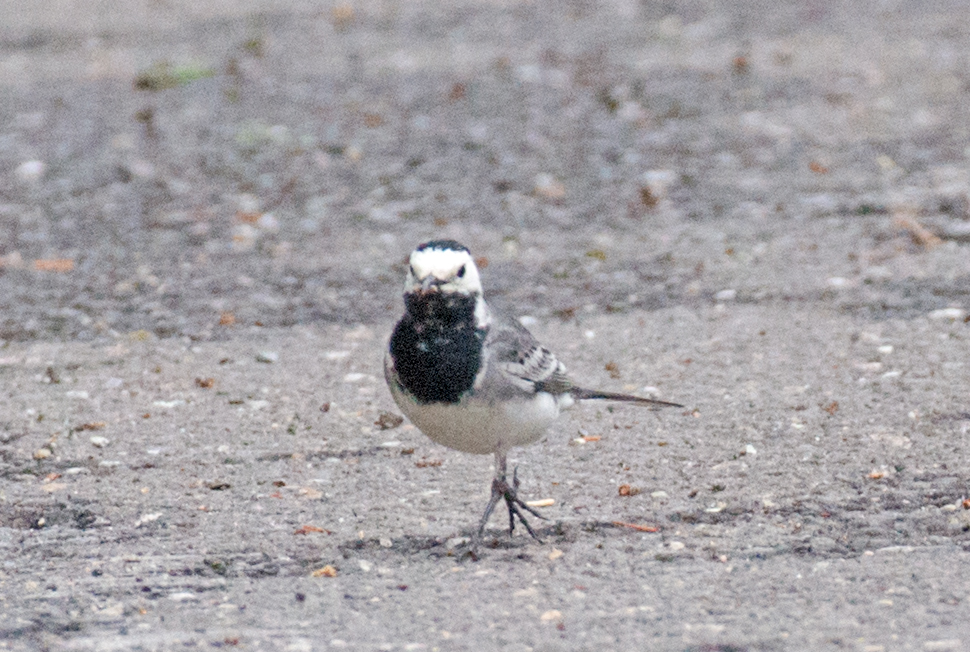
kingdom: Animalia
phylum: Chordata
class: Aves
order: Passeriformes
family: Motacillidae
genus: Motacilla
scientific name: Motacilla alba
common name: White wagtail
